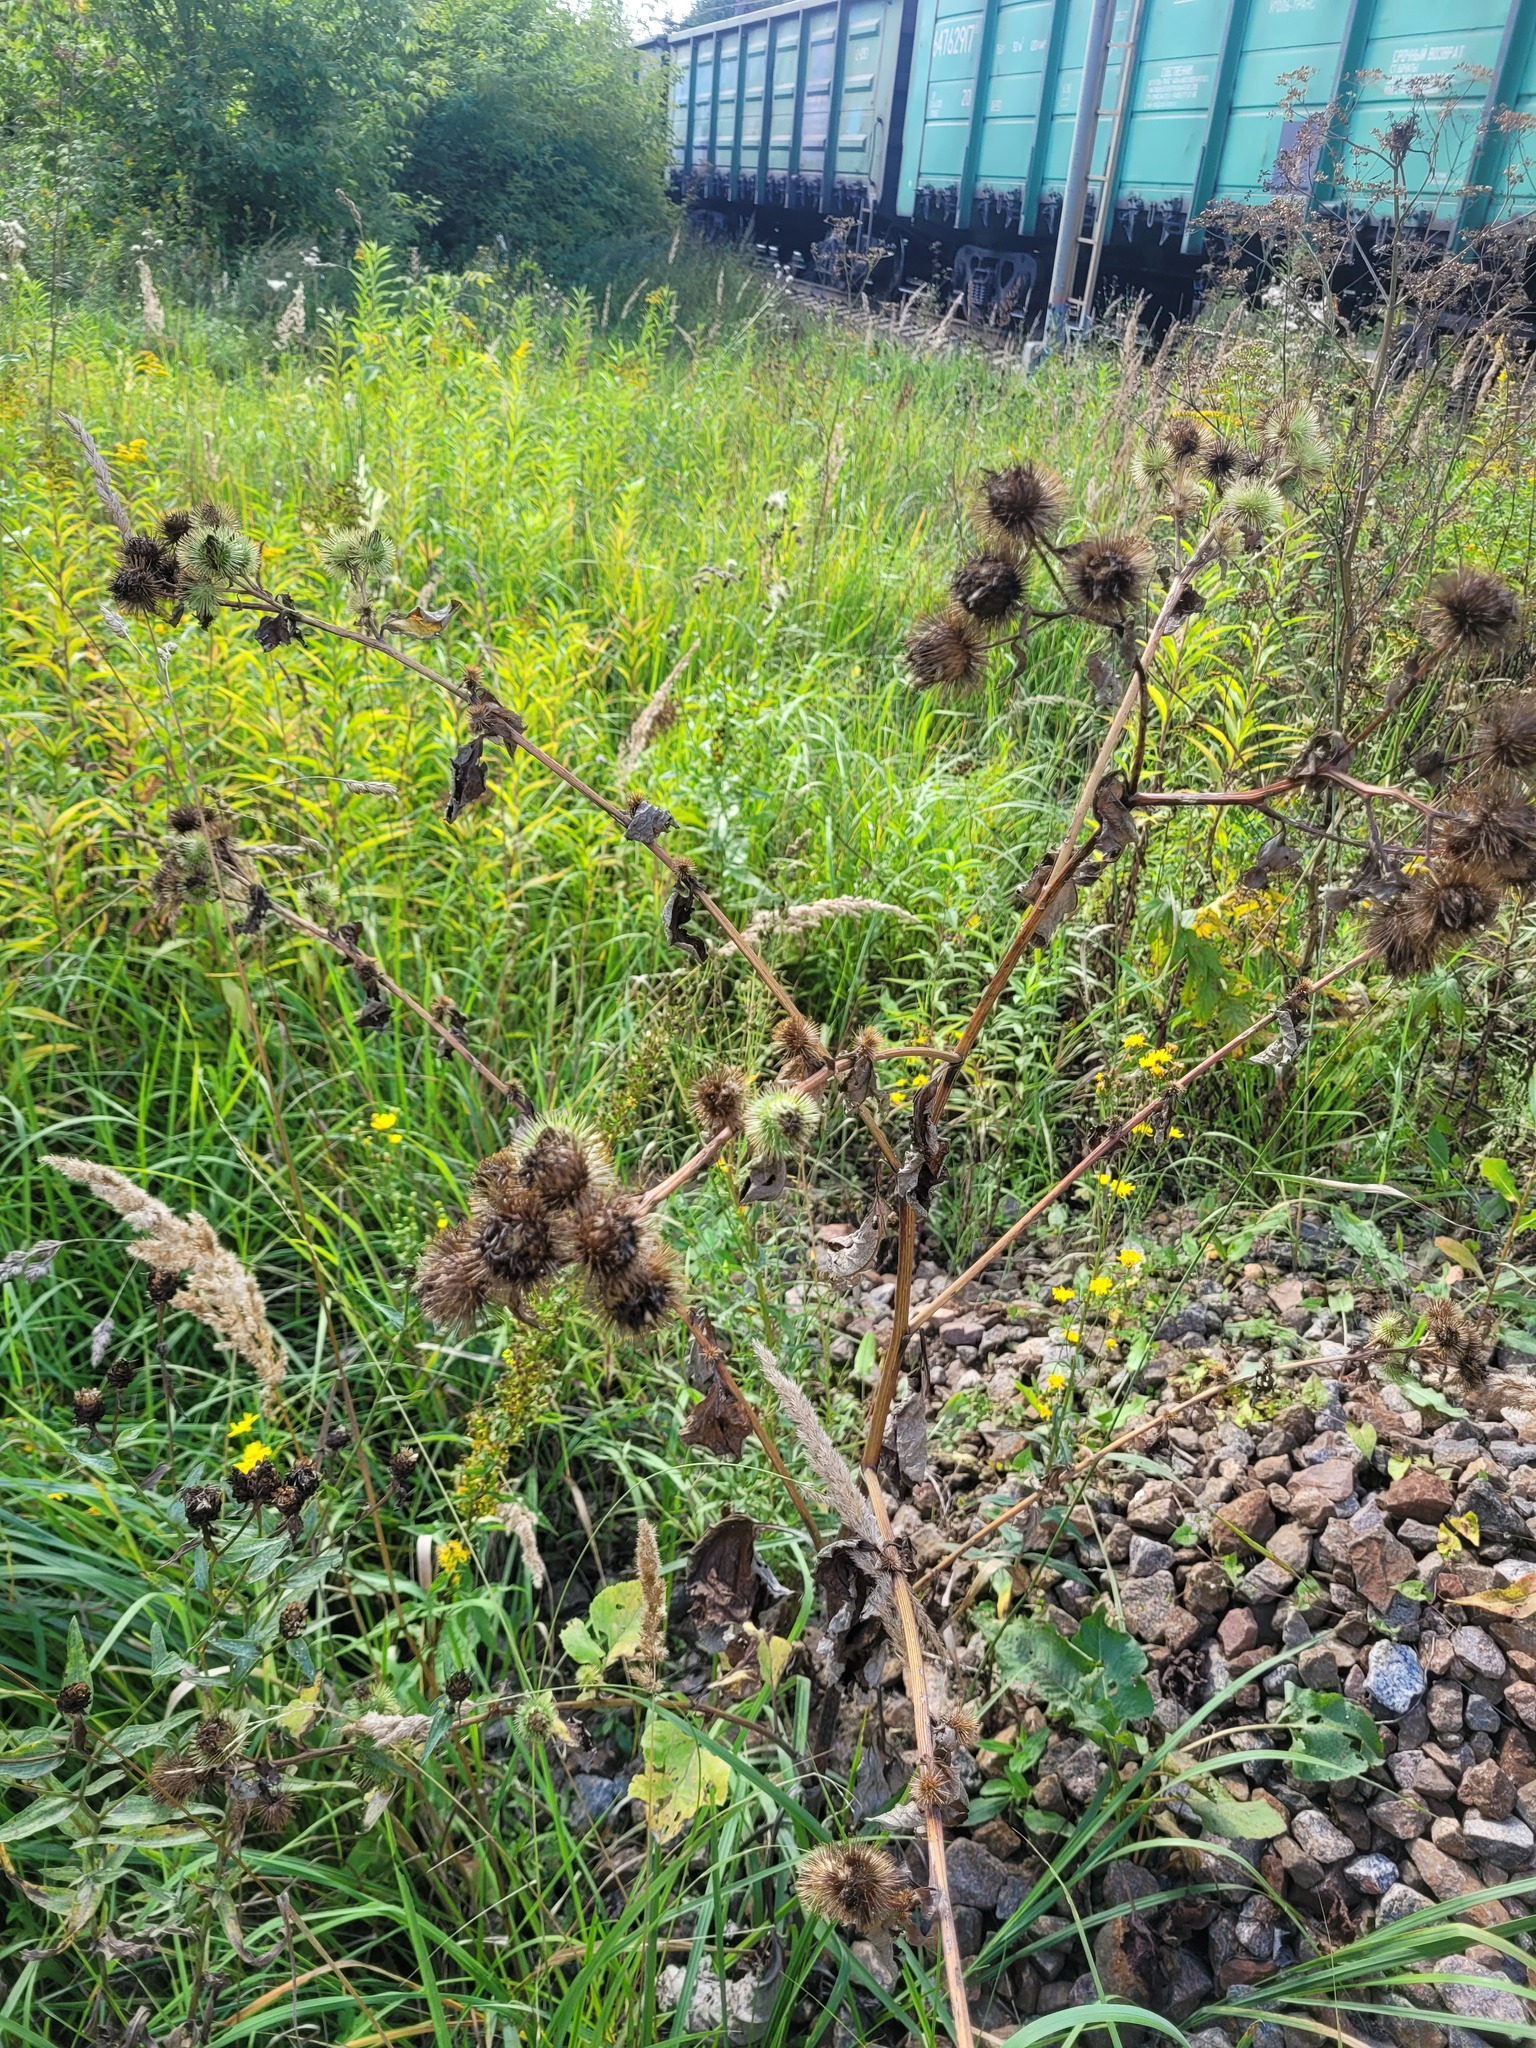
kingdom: Plantae
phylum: Tracheophyta
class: Magnoliopsida
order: Asterales
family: Asteraceae
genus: Arctium
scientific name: Arctium
